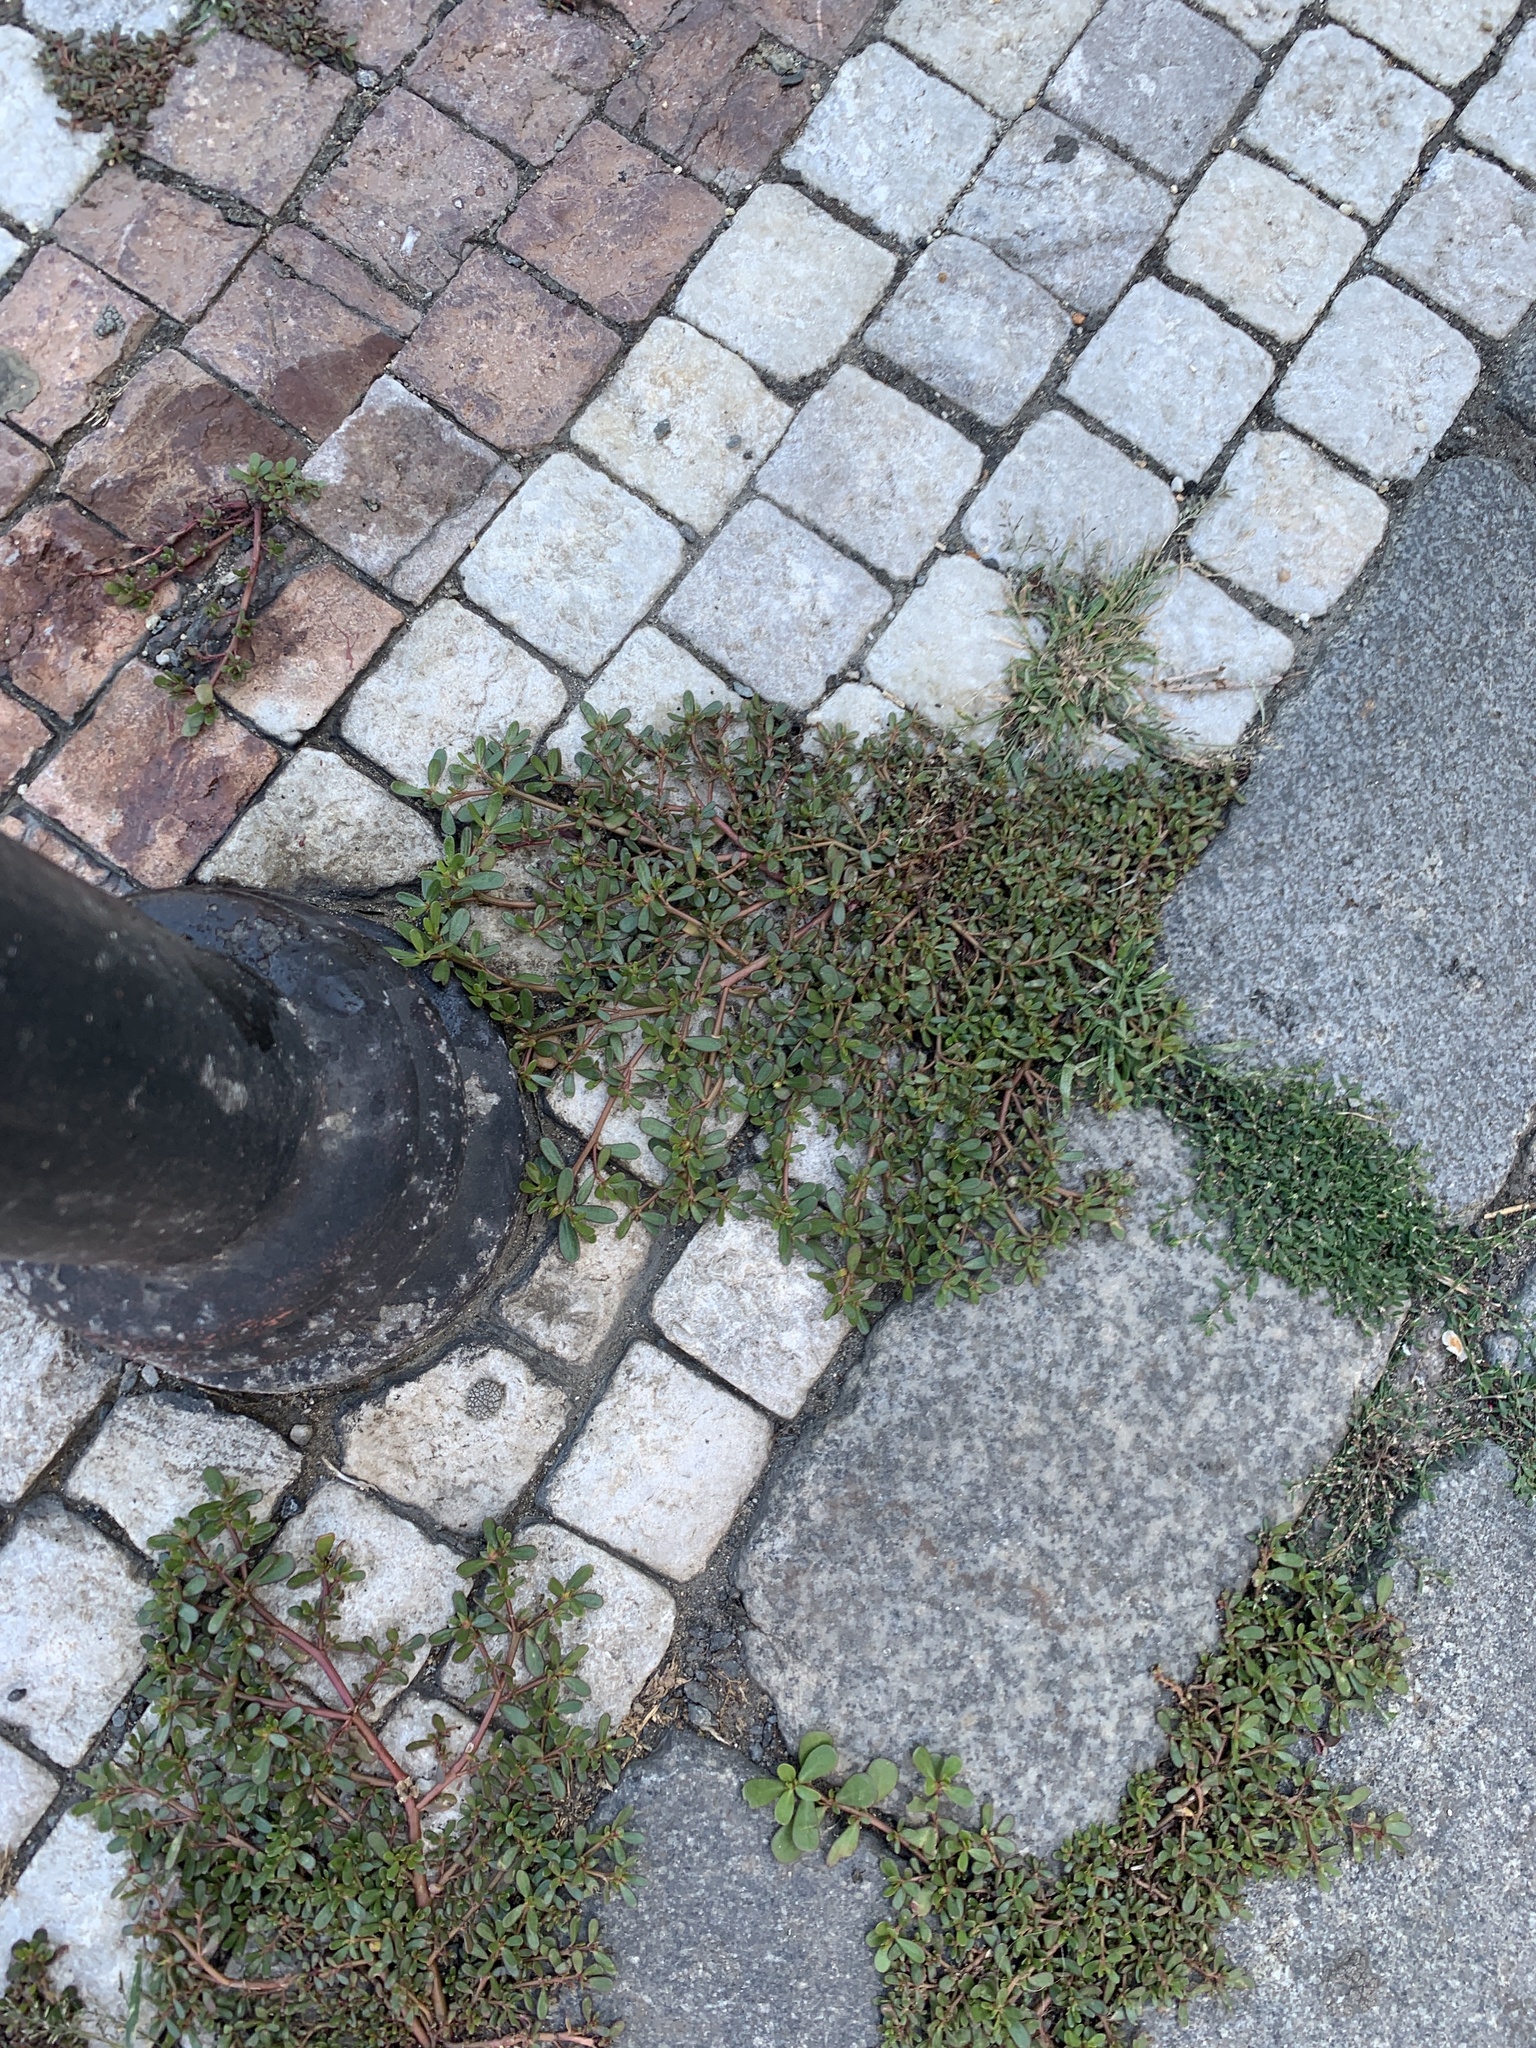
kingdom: Plantae
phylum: Tracheophyta
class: Magnoliopsida
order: Caryophyllales
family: Portulacaceae
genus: Portulaca
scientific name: Portulaca oleracea
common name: Common purslane
